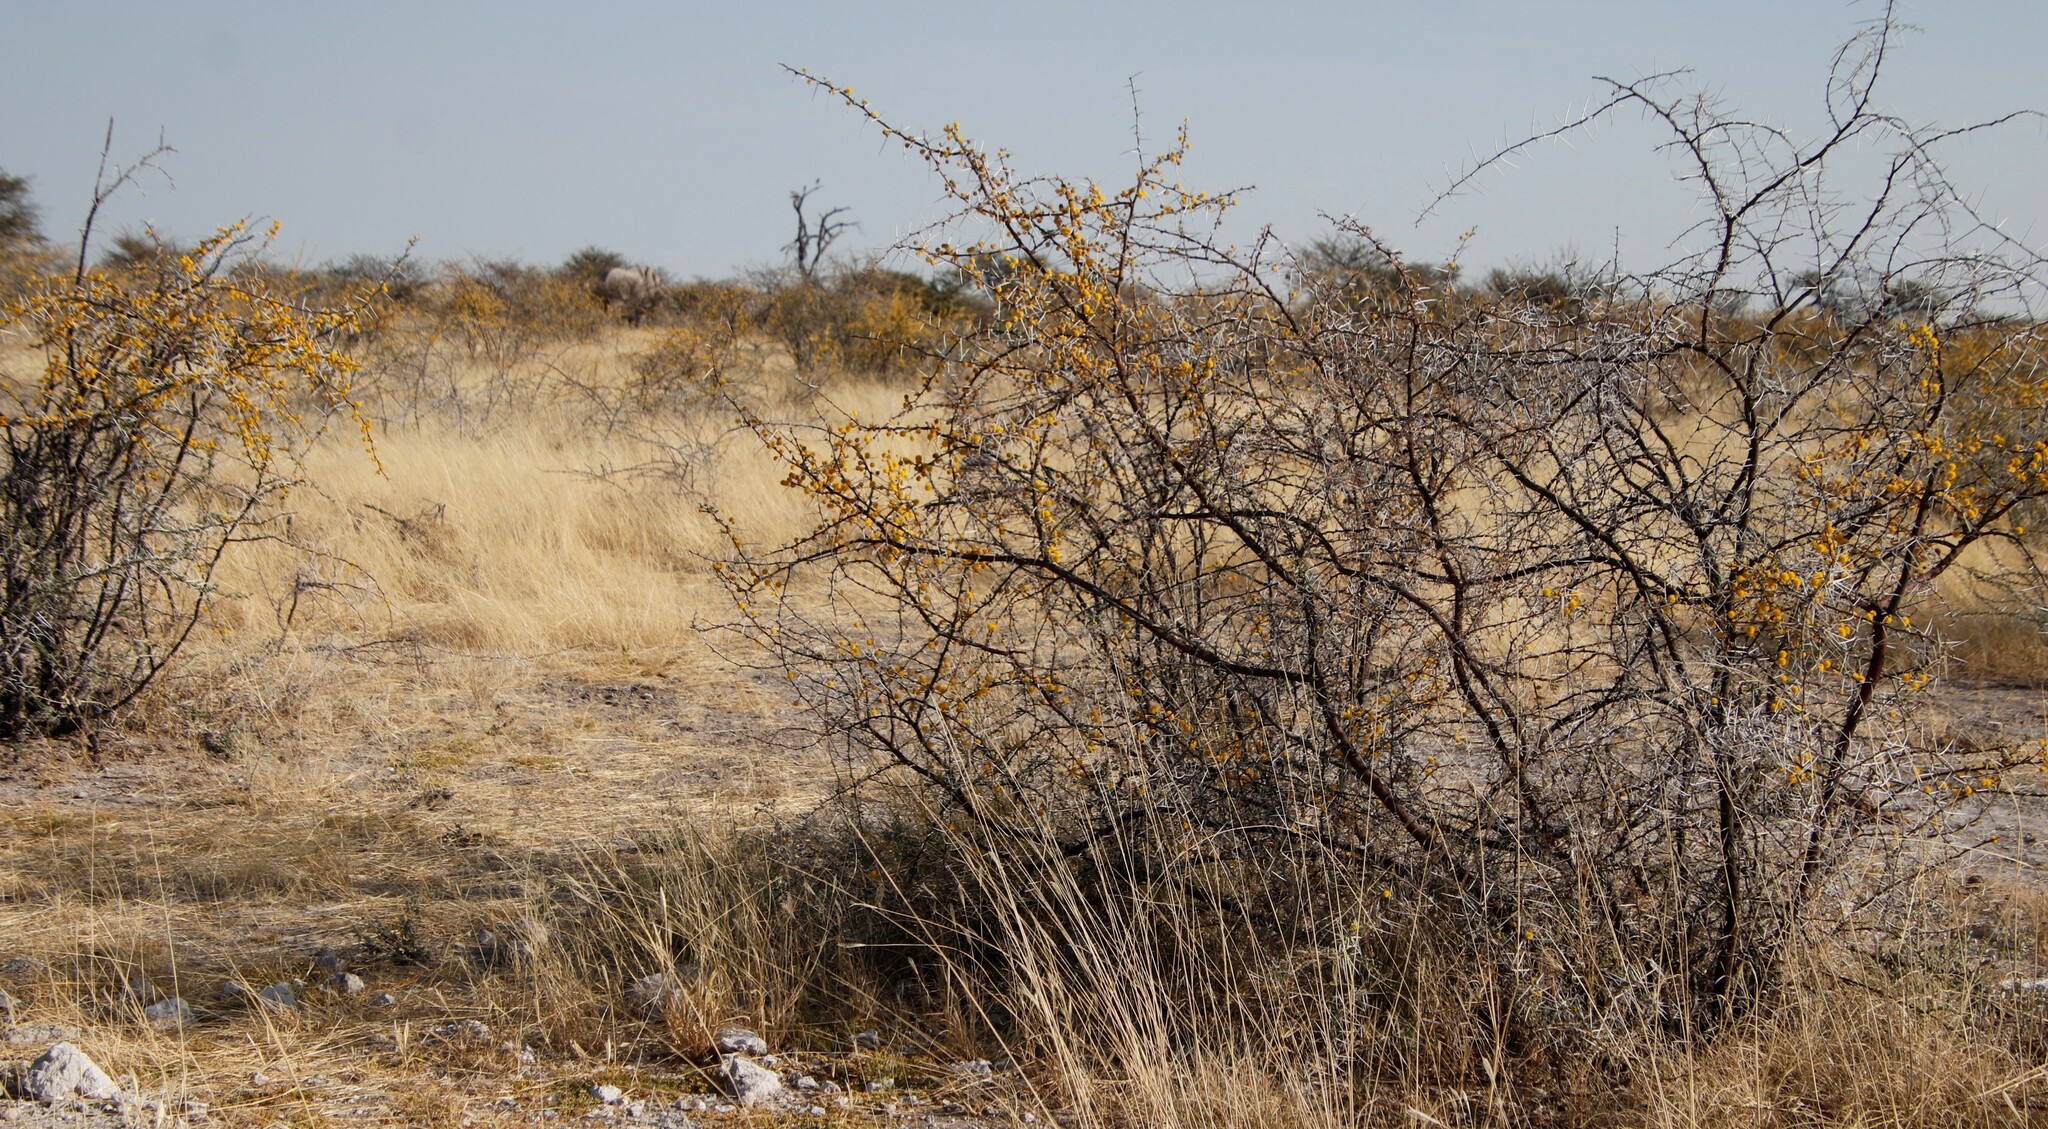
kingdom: Animalia
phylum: Chordata
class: Mammalia
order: Proboscidea
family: Elephantidae
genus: Loxodonta
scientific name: Loxodonta africana
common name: African elephant
